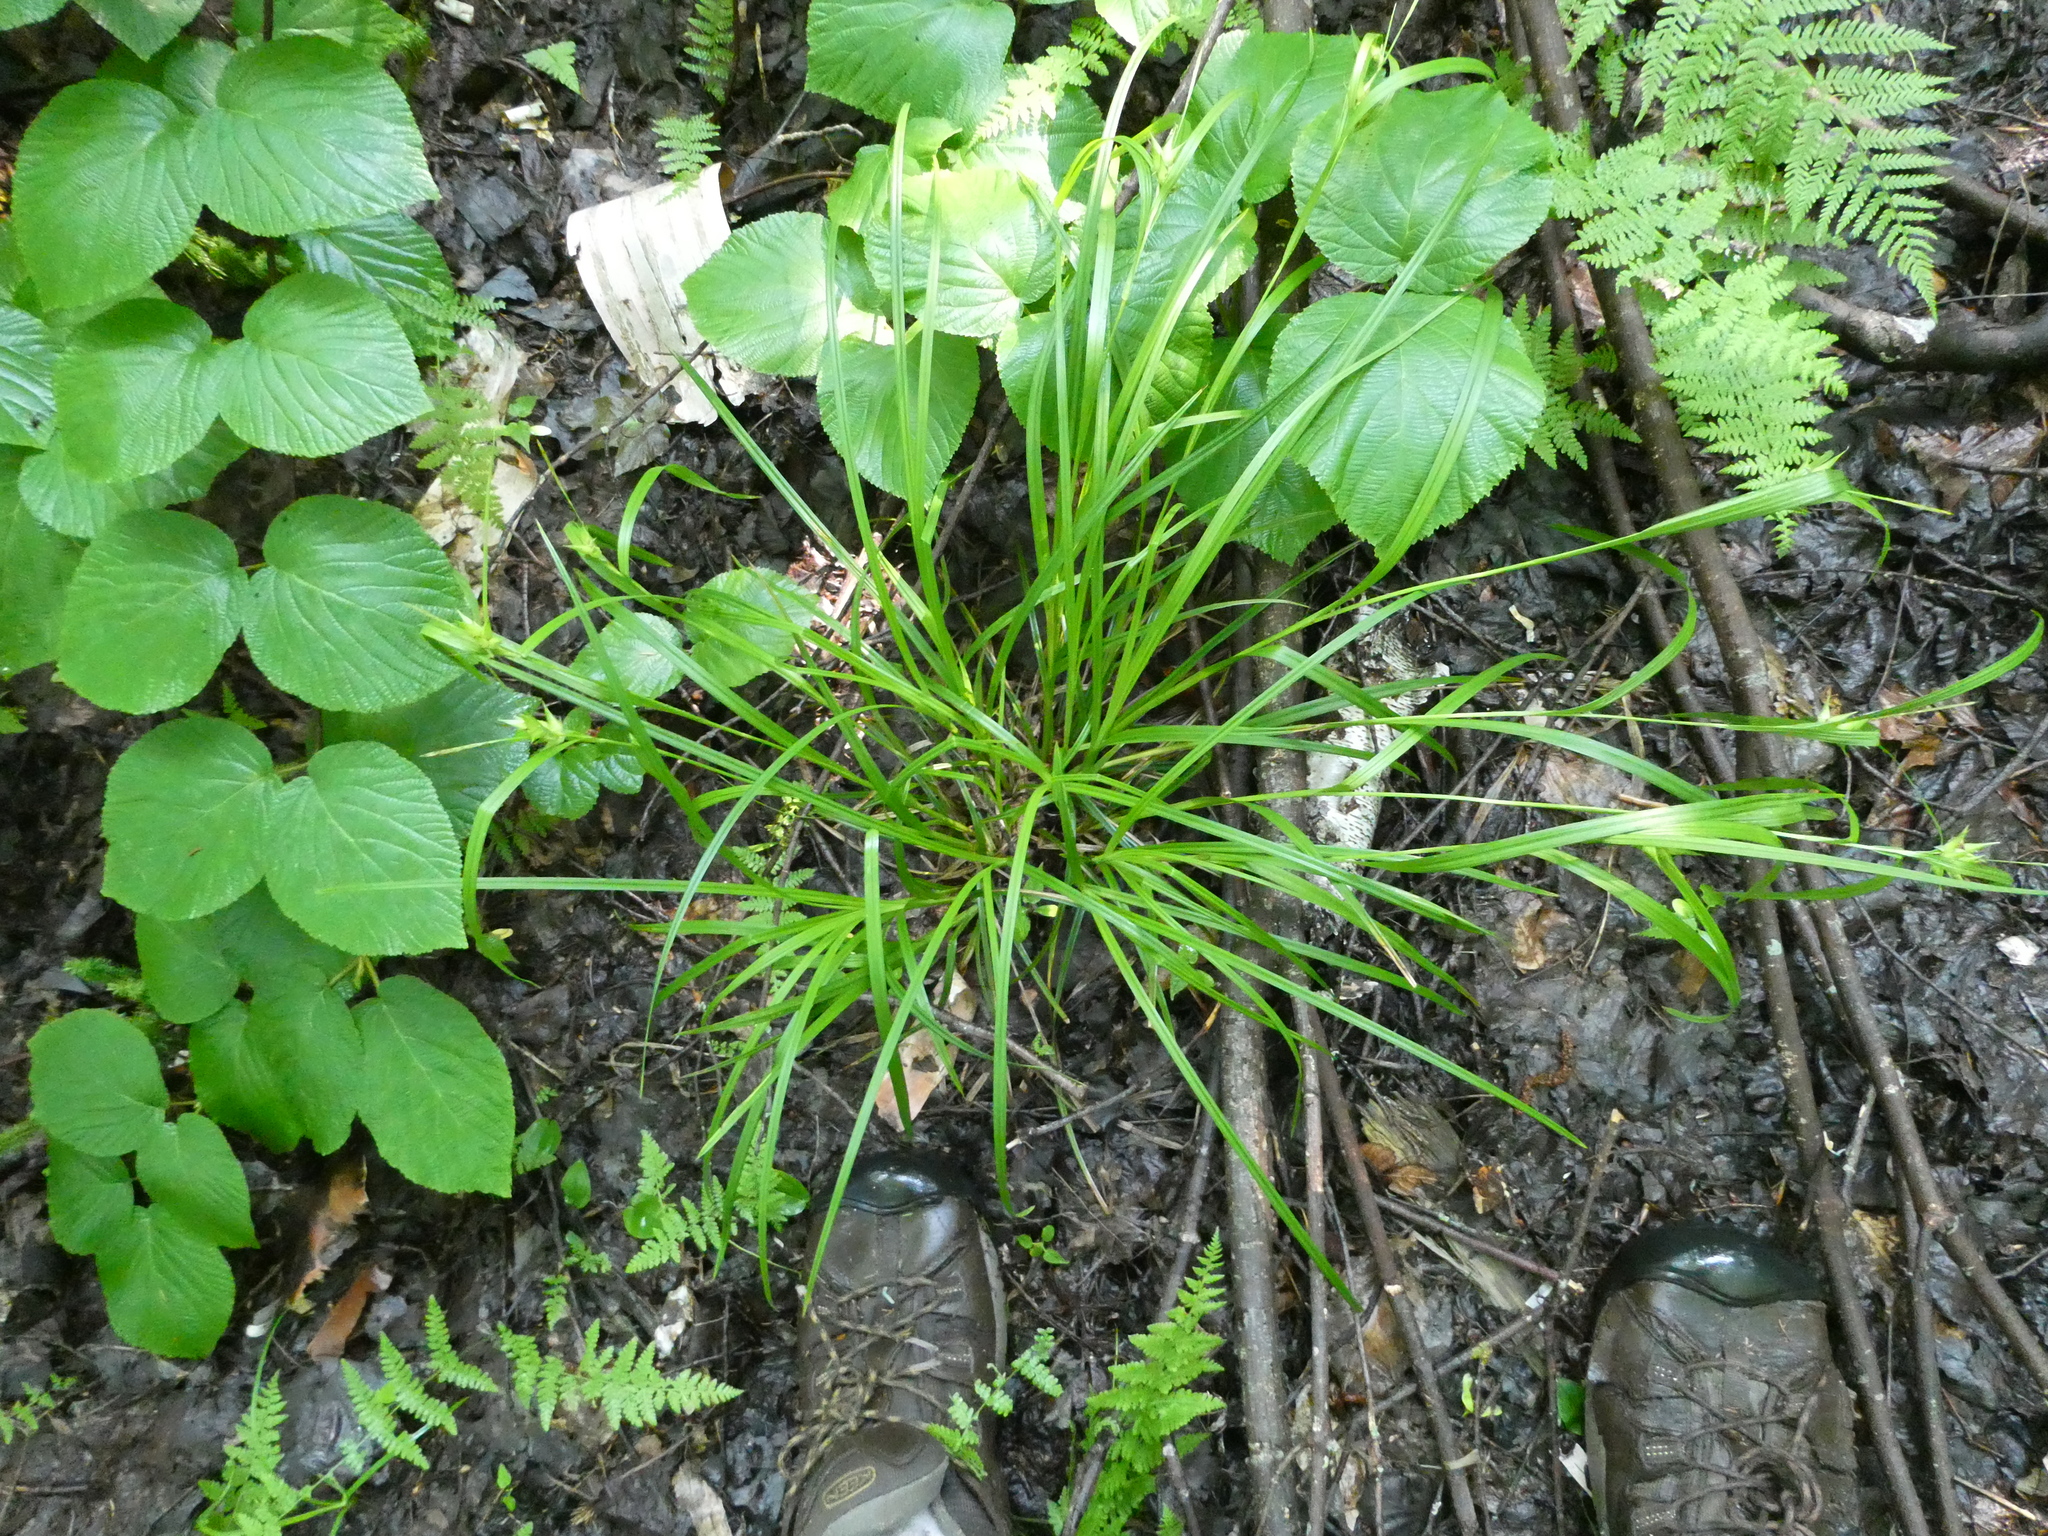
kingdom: Plantae
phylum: Tracheophyta
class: Liliopsida
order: Poales
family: Cyperaceae
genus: Carex
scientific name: Carex intumescens
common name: Greater bladder sedge
